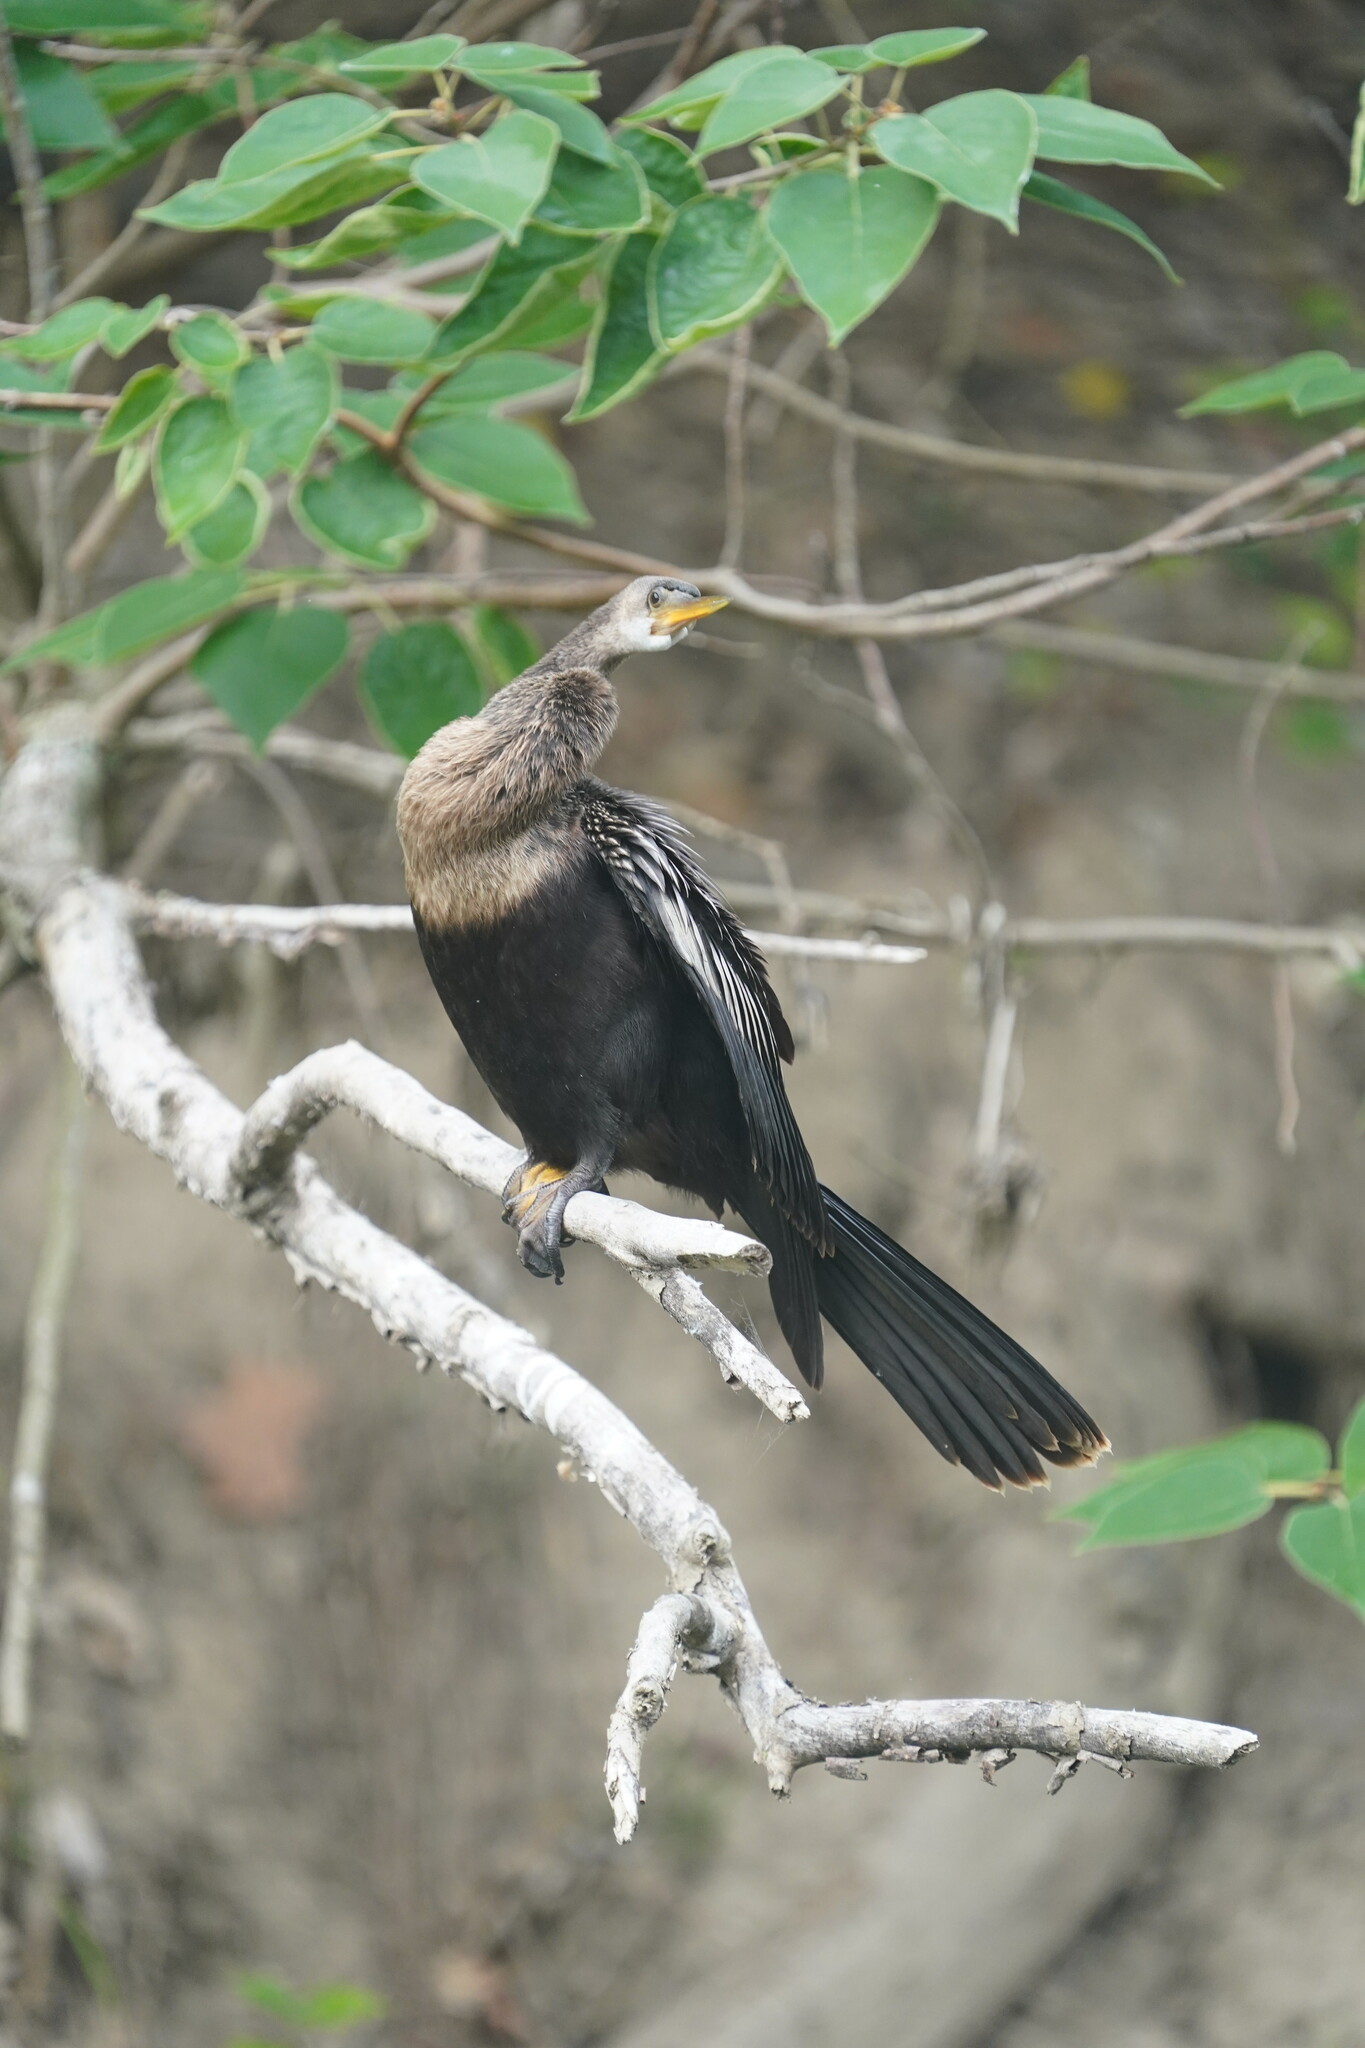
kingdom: Animalia
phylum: Chordata
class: Aves
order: Suliformes
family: Anhingidae
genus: Anhinga
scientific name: Anhinga anhinga
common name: Anhinga
